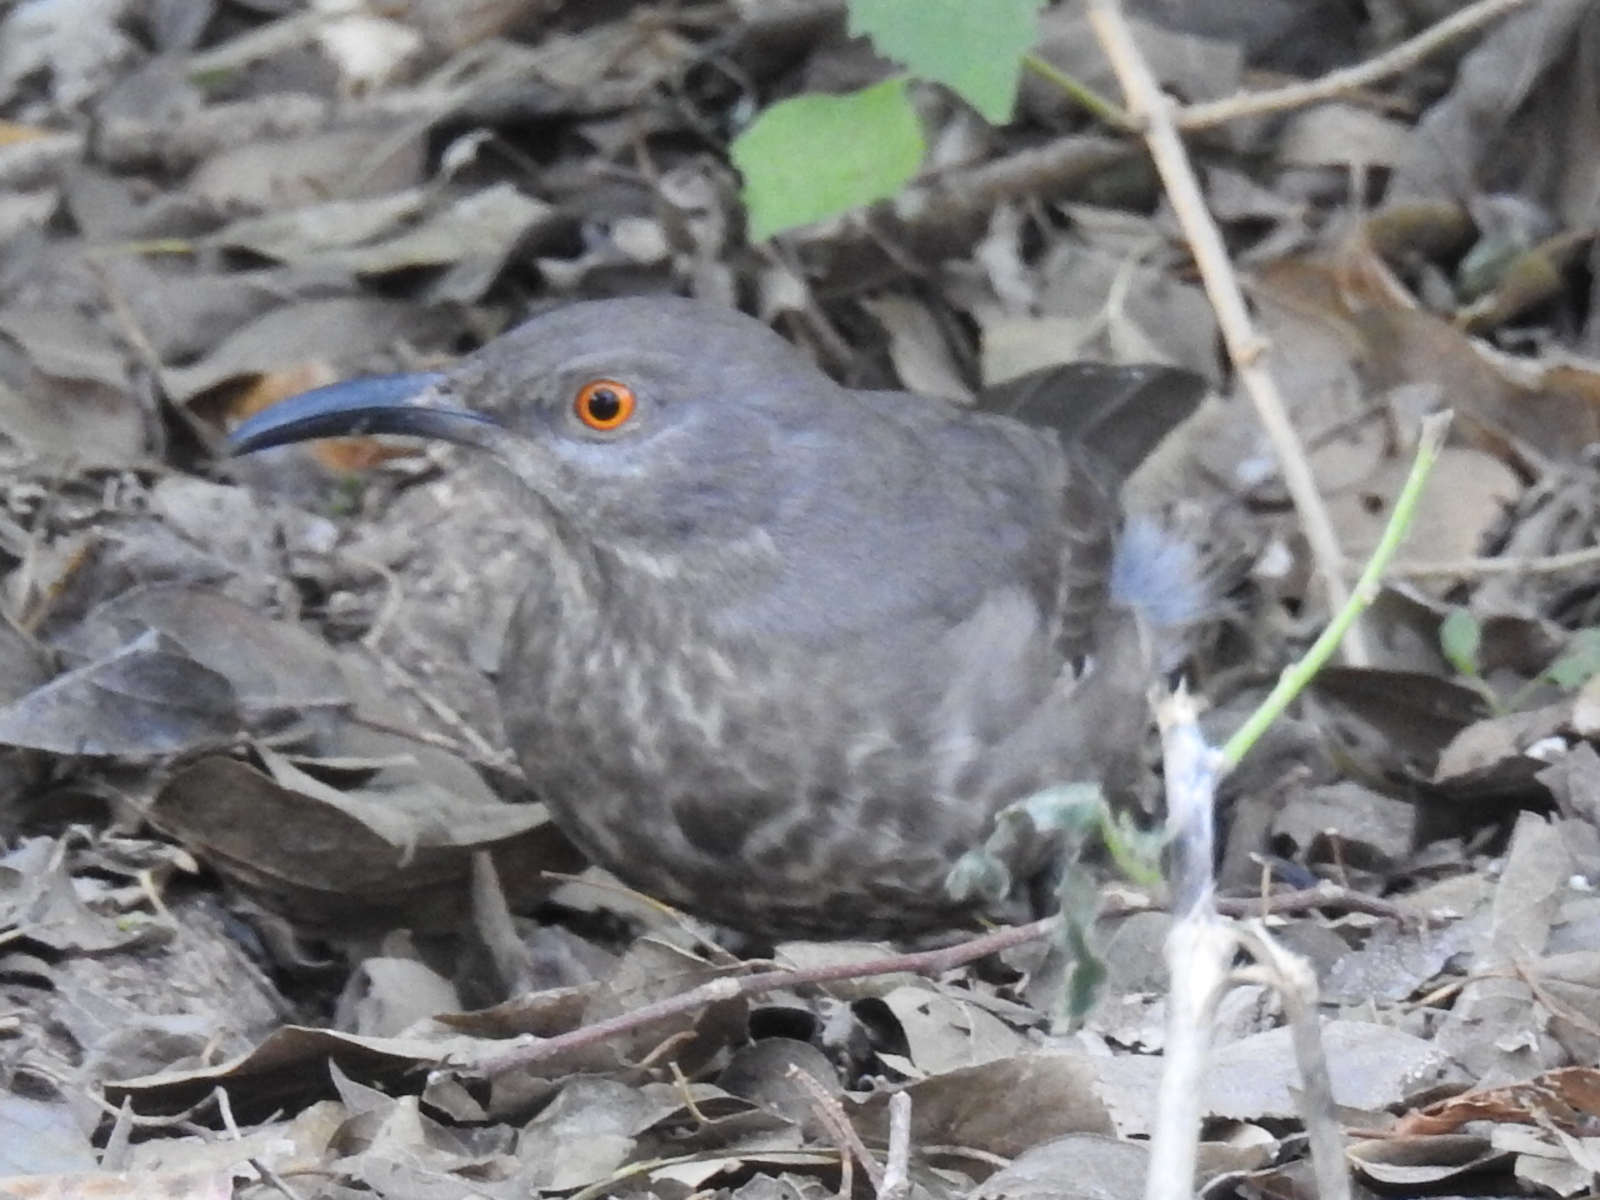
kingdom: Animalia
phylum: Chordata
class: Aves
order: Passeriformes
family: Mimidae
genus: Toxostoma
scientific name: Toxostoma curvirostre
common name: Curve-billed thrasher
